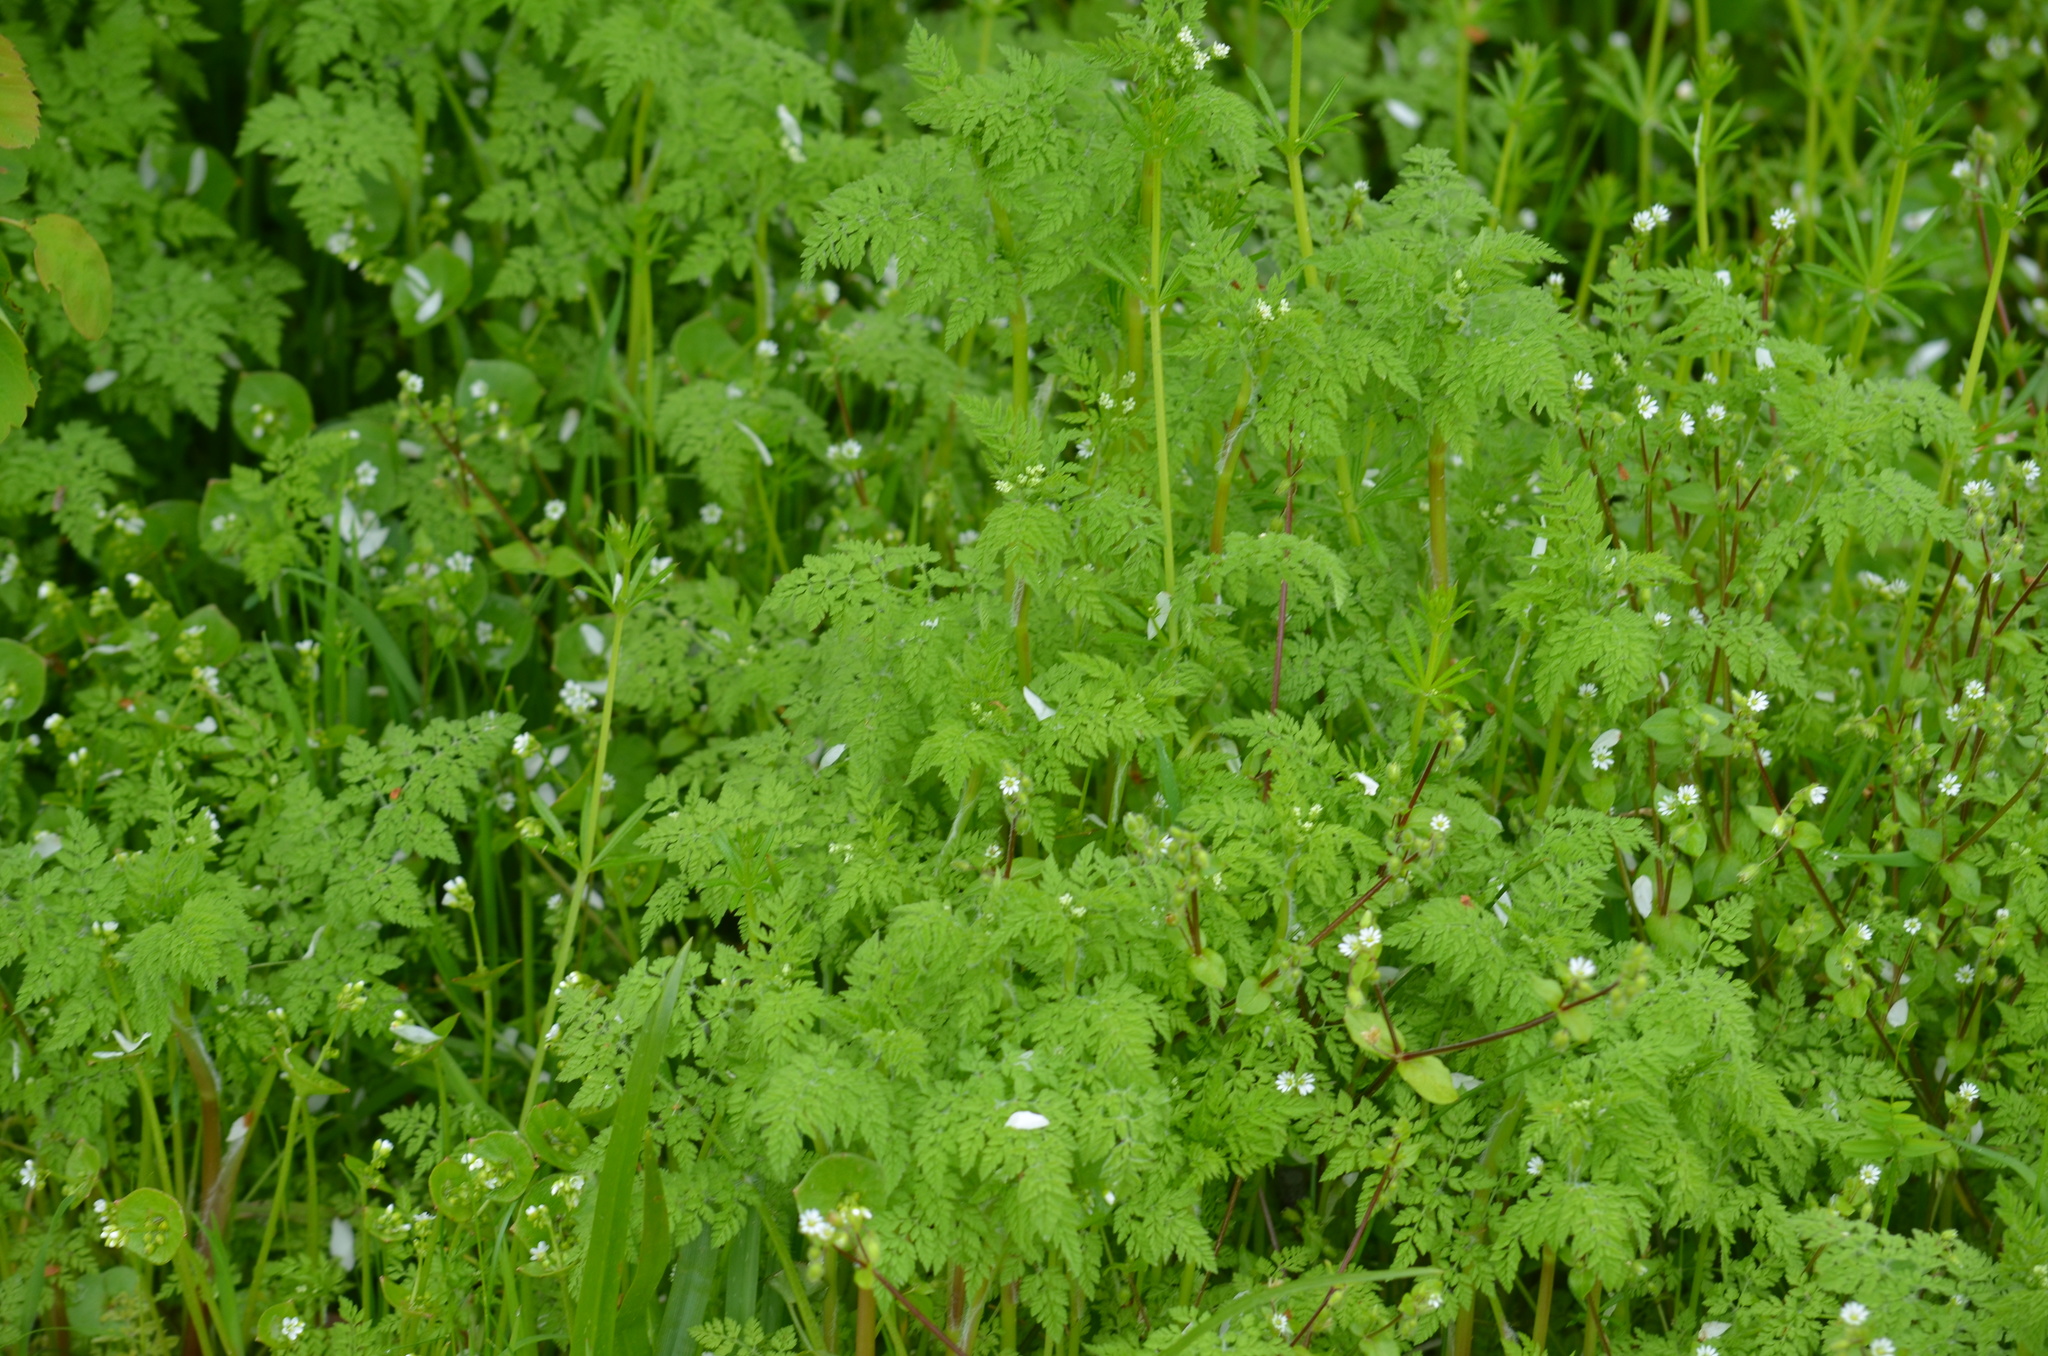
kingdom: Plantae
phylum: Tracheophyta
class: Magnoliopsida
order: Apiales
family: Apiaceae
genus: Anthriscus
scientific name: Anthriscus caucalis
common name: Bur chervil
